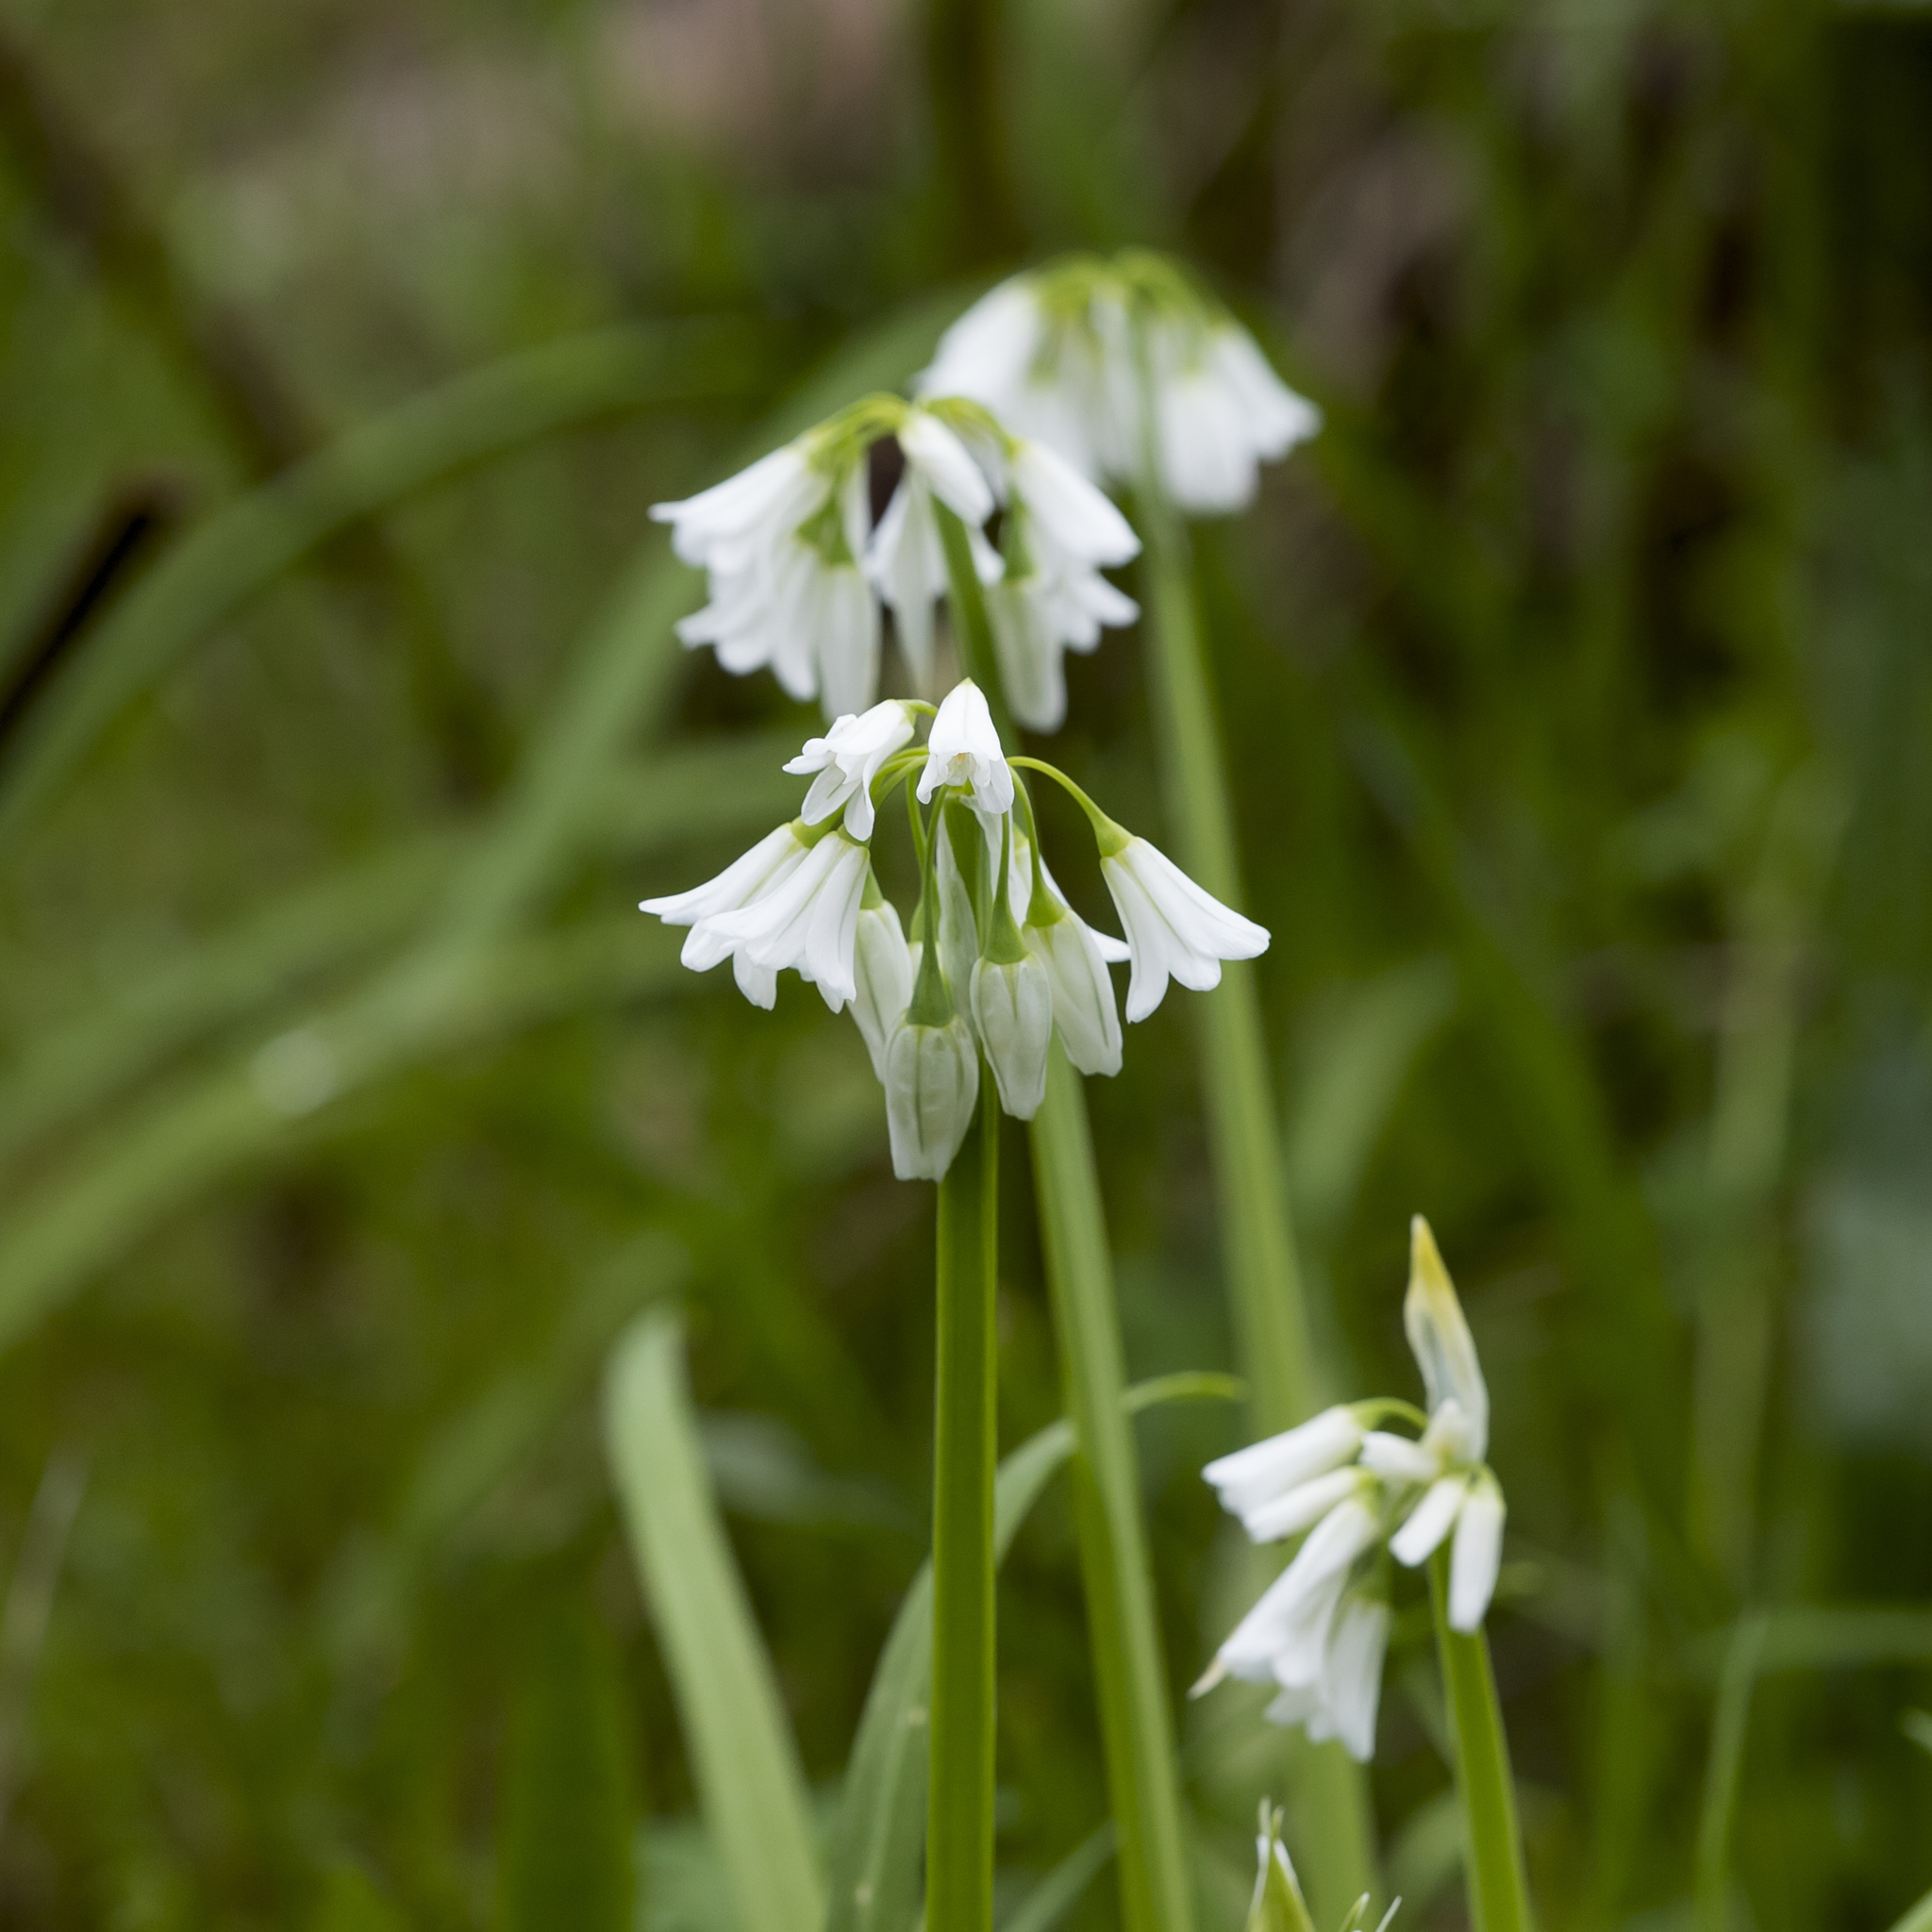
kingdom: Plantae
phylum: Tracheophyta
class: Liliopsida
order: Asparagales
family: Amaryllidaceae
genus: Allium
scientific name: Allium triquetrum
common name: Three-cornered garlic
